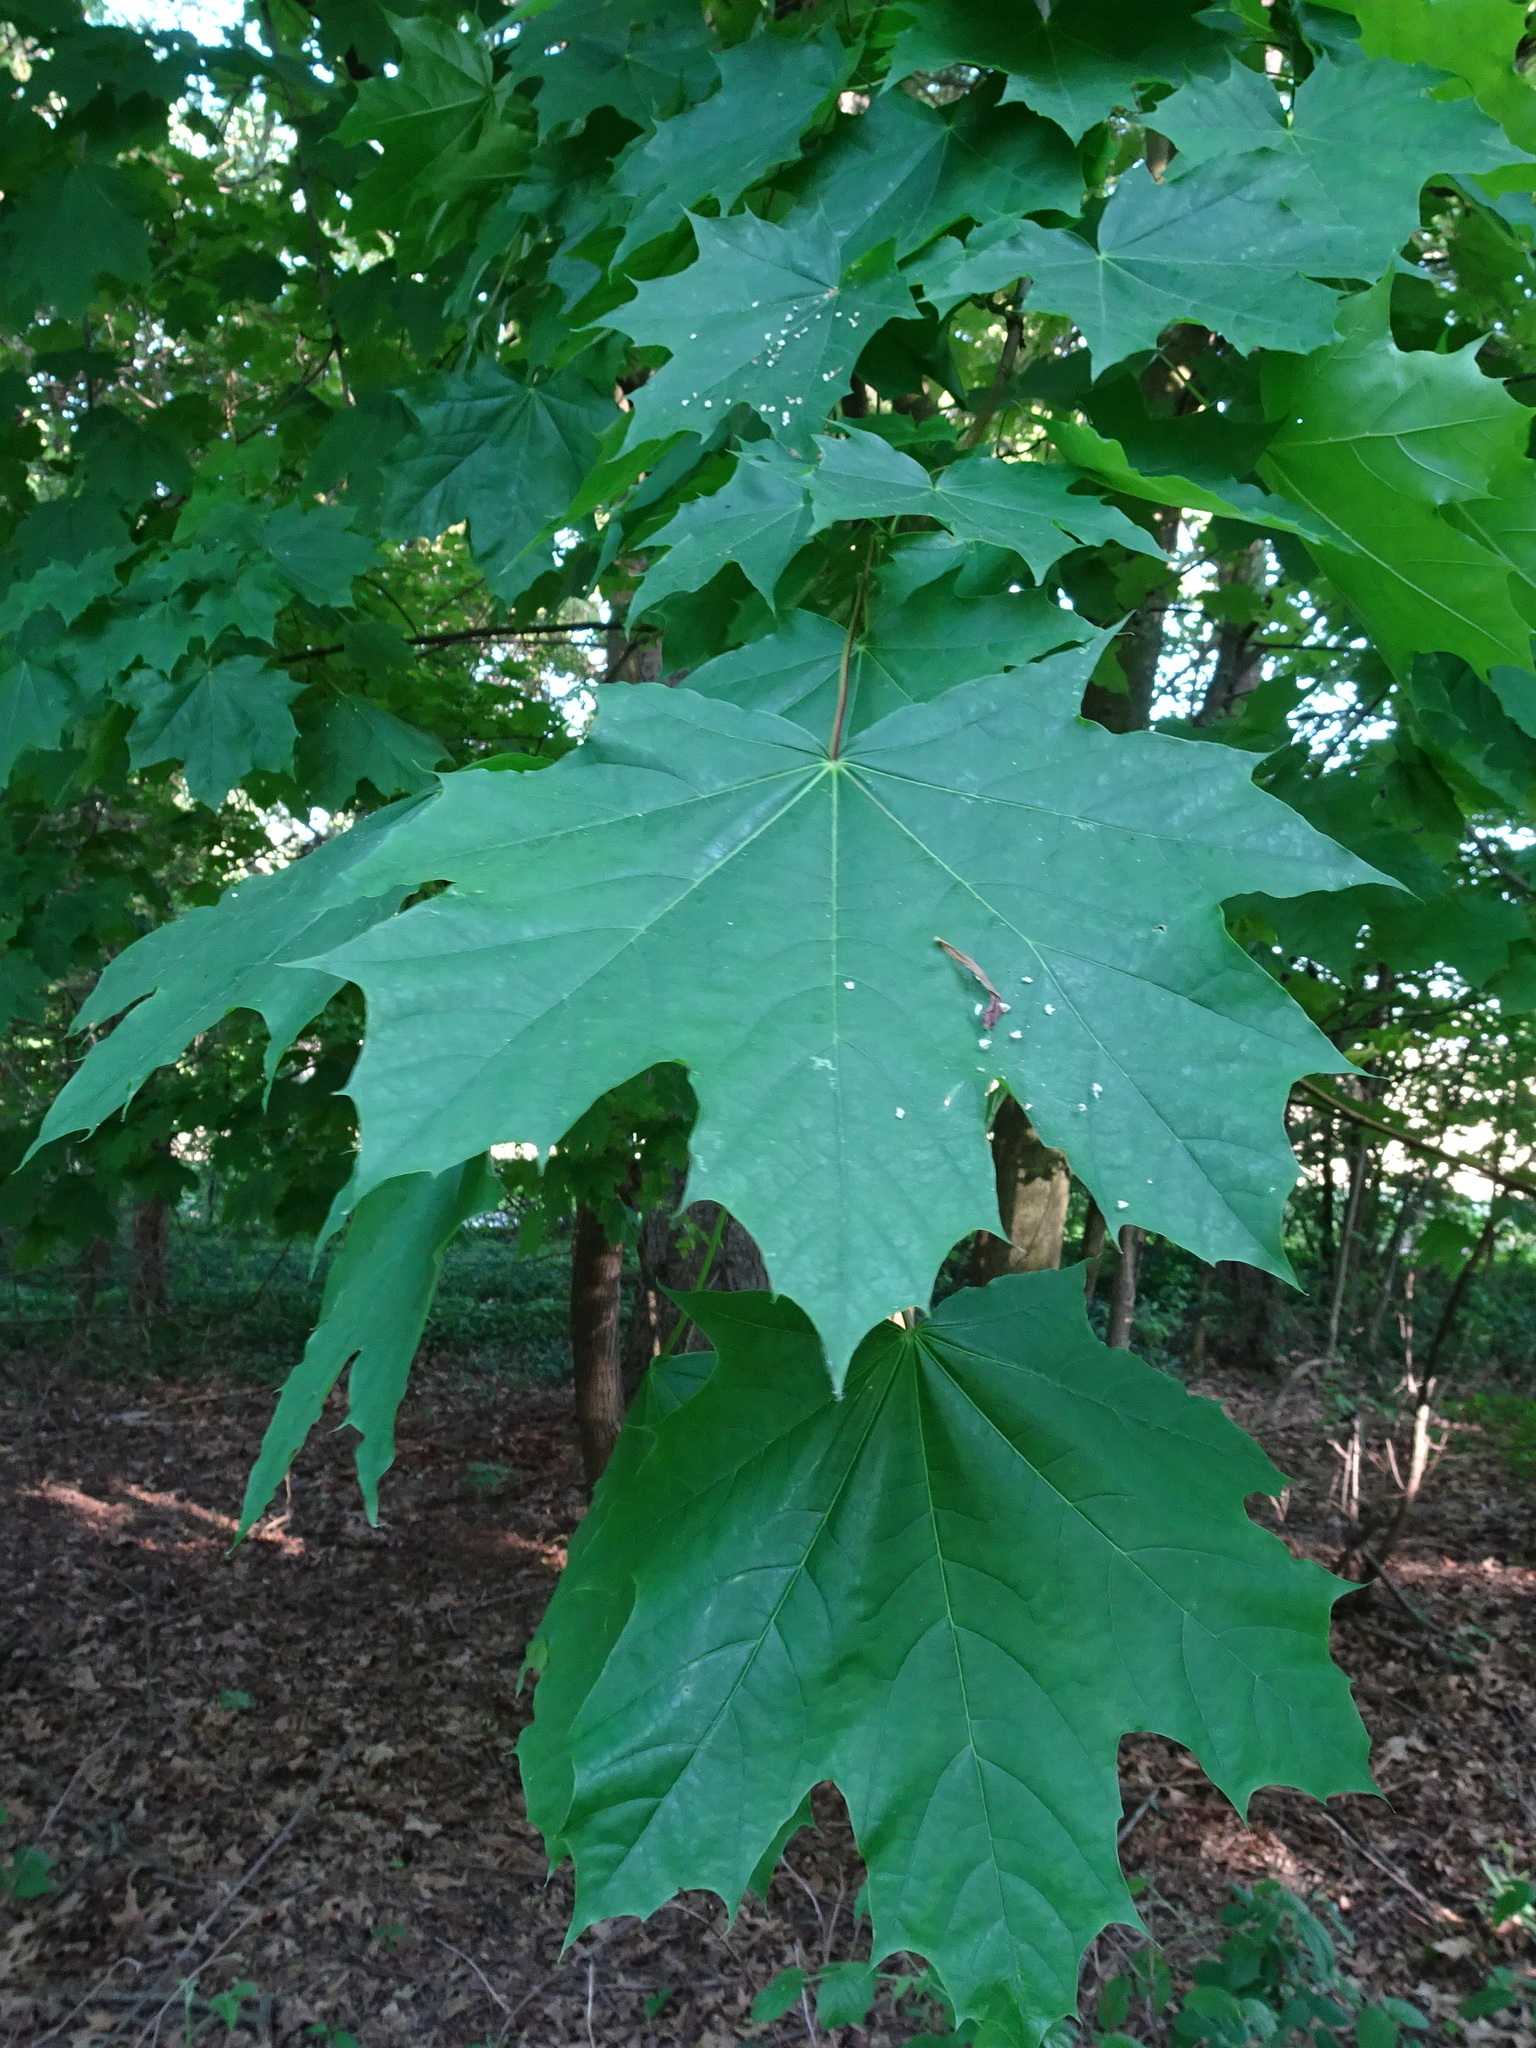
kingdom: Plantae
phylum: Tracheophyta
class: Magnoliopsida
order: Sapindales
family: Sapindaceae
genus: Acer
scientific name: Acer platanoides
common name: Norway maple
